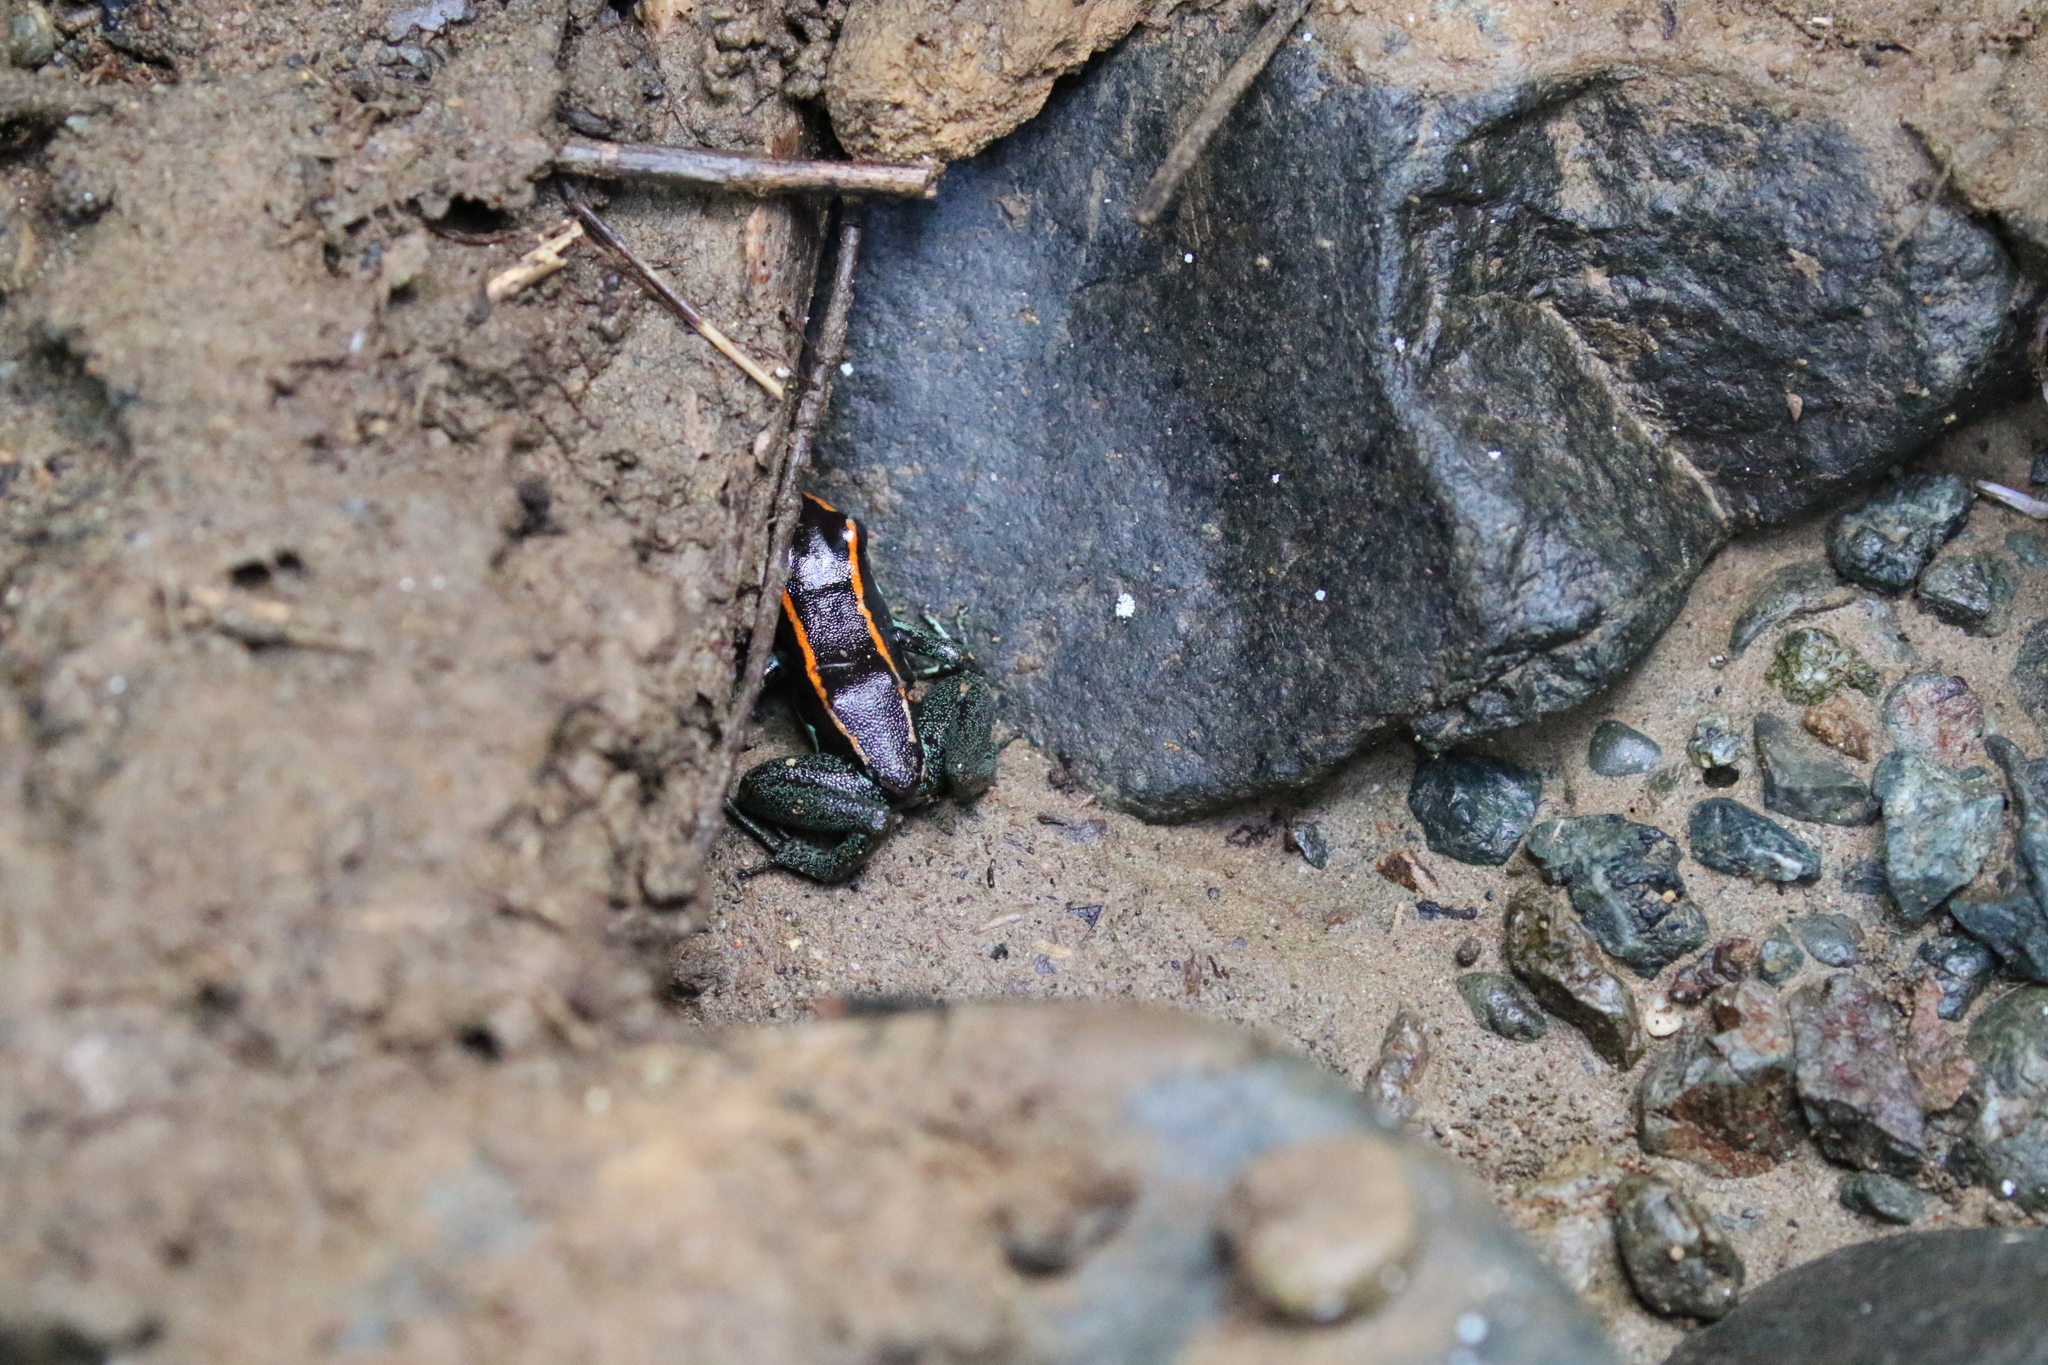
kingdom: Animalia
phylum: Chordata
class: Amphibia
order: Anura
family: Dendrobatidae
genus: Phyllobates
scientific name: Phyllobates vittatus
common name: Golfodulcean poison frog
